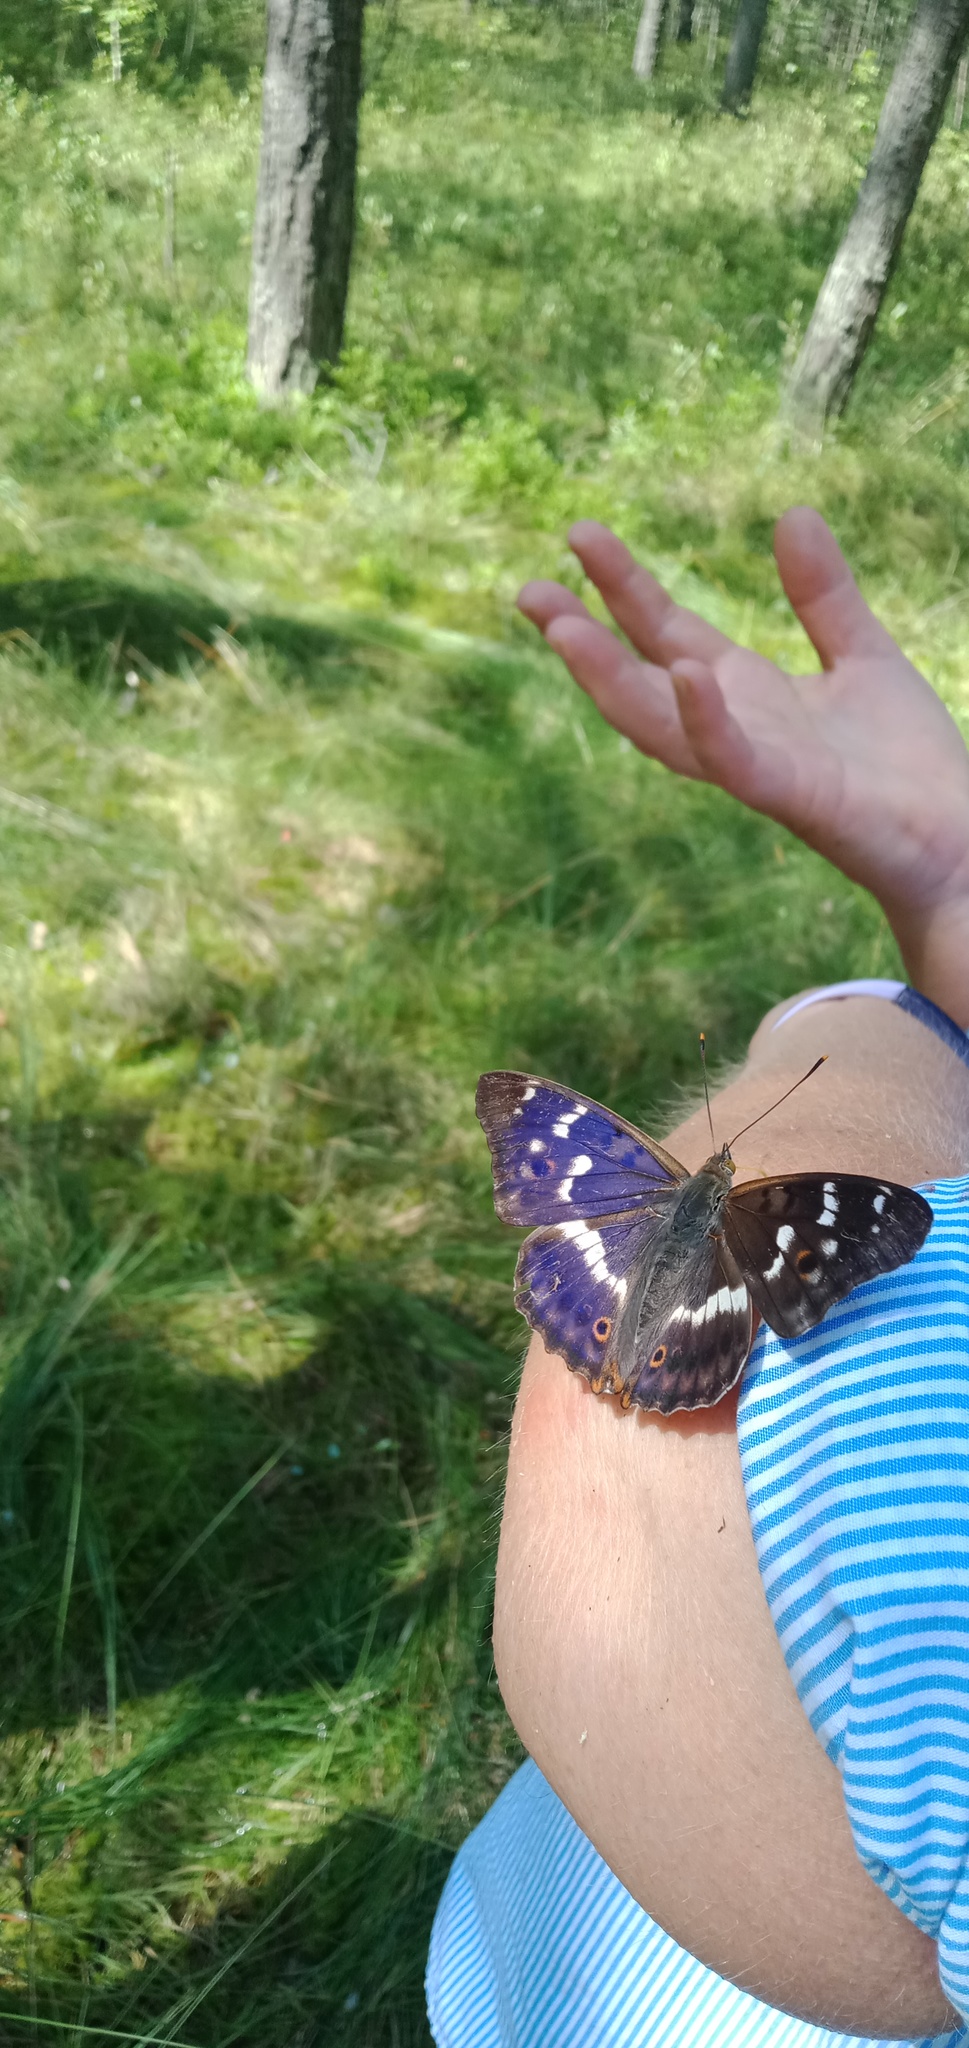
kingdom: Animalia
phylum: Arthropoda
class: Insecta
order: Lepidoptera
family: Nymphalidae
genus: Apatura
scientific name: Apatura ilia
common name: Lesser purple emperor
